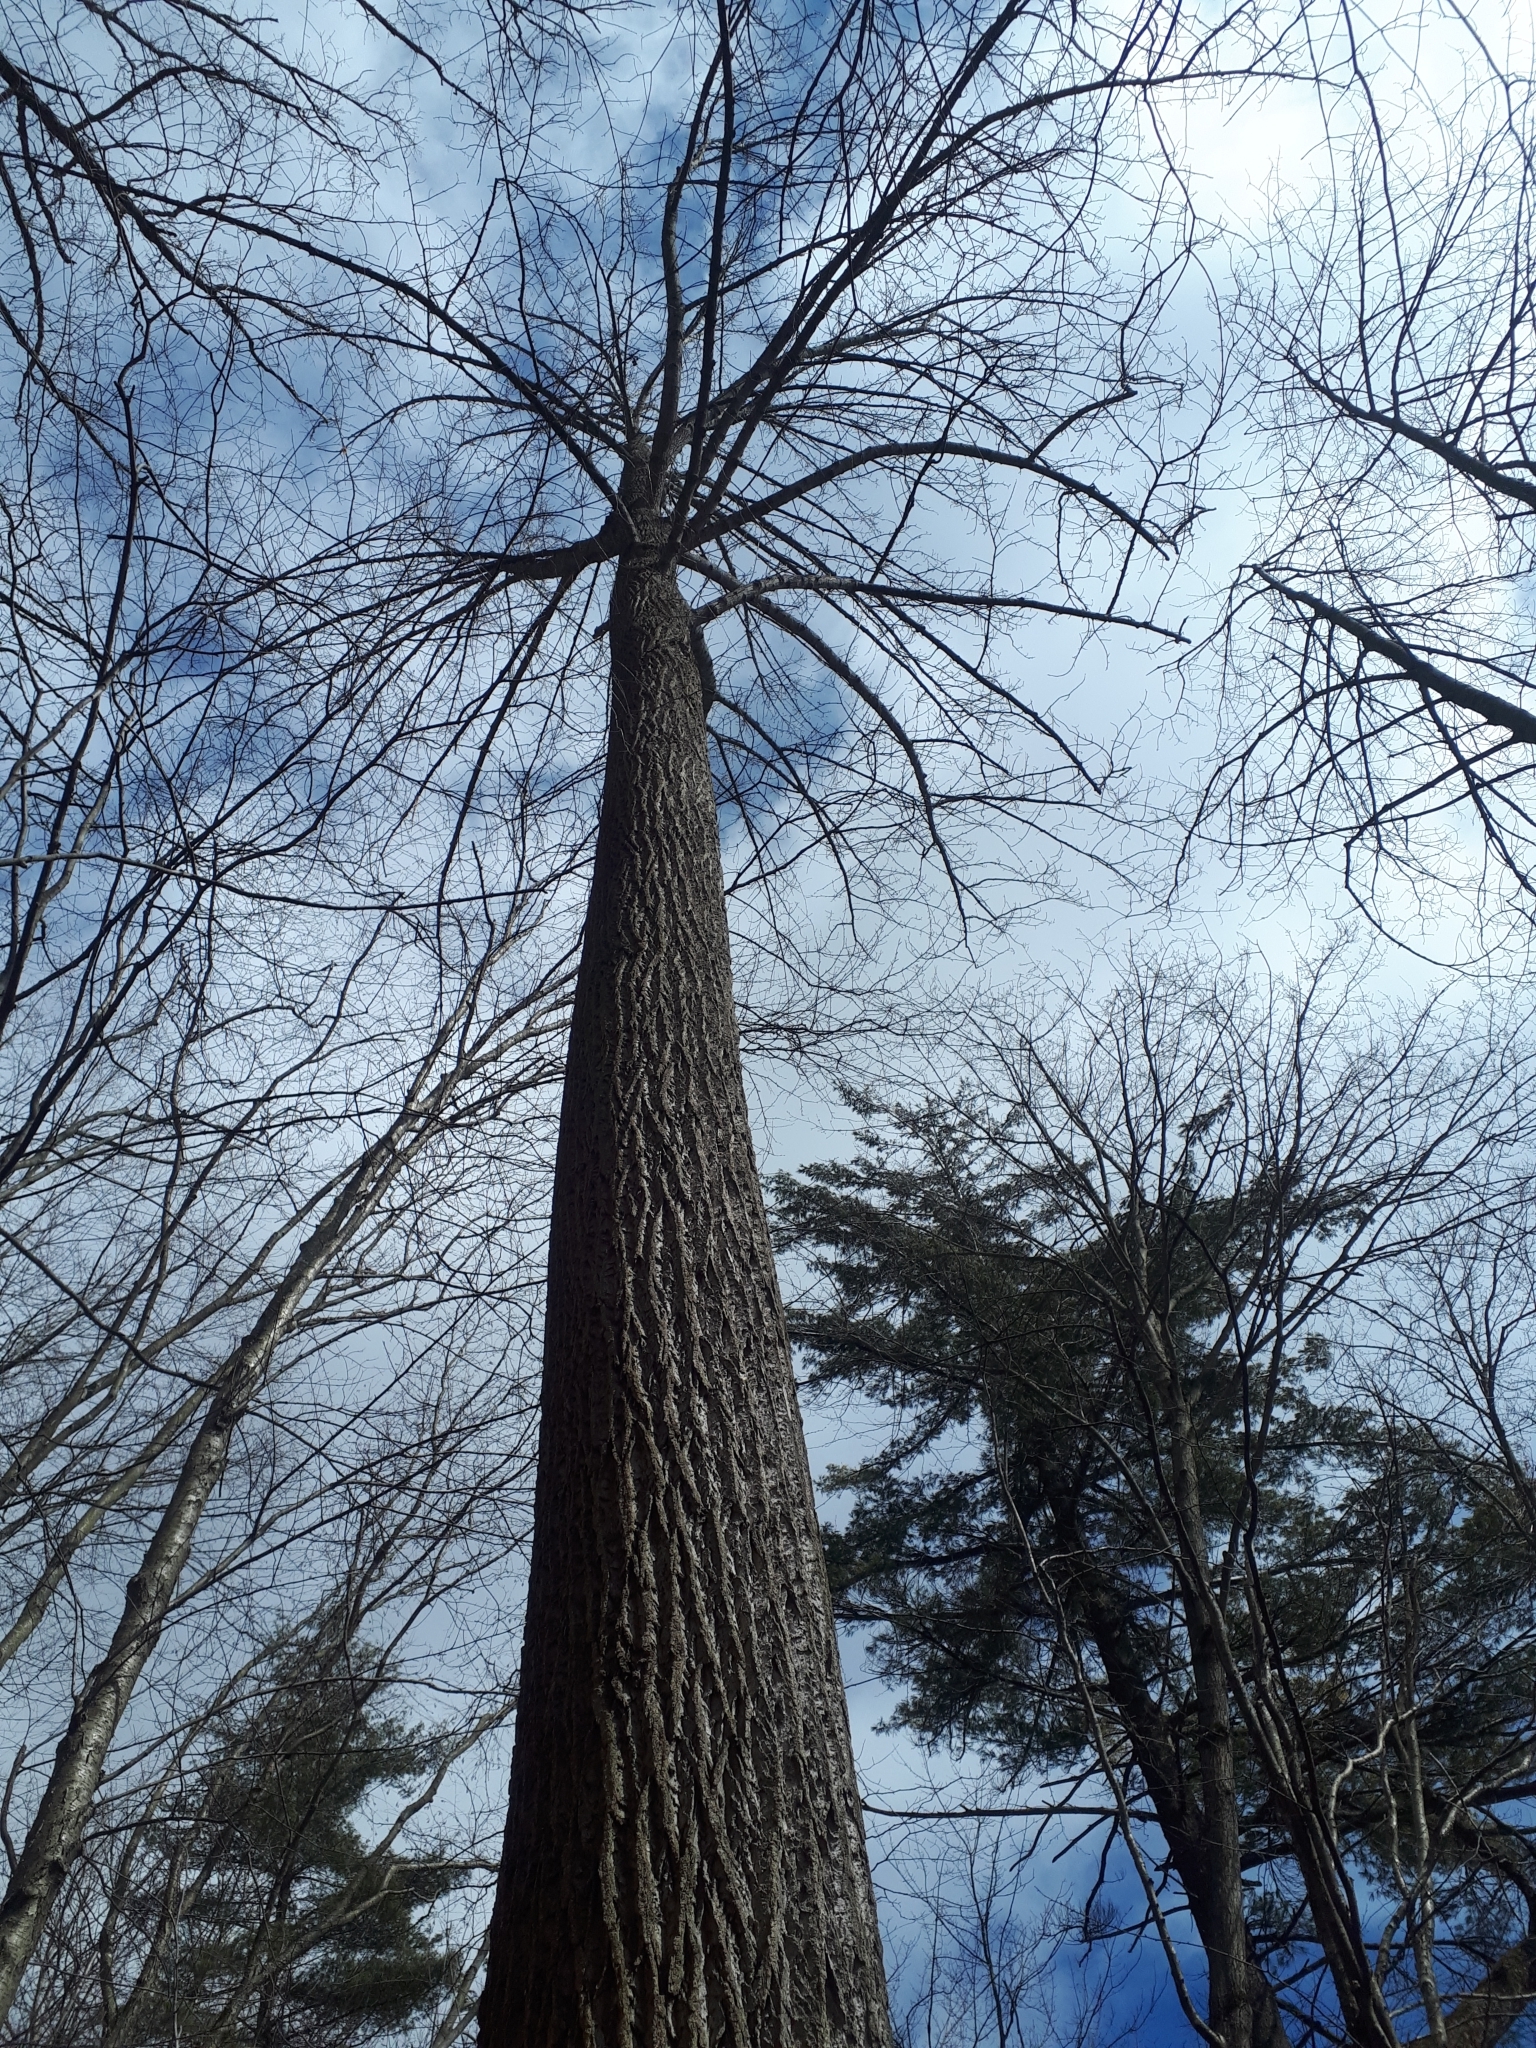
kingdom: Plantae
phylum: Tracheophyta
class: Magnoliopsida
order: Magnoliales
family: Magnoliaceae
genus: Liriodendron
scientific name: Liriodendron tulipifera
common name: Tulip tree
